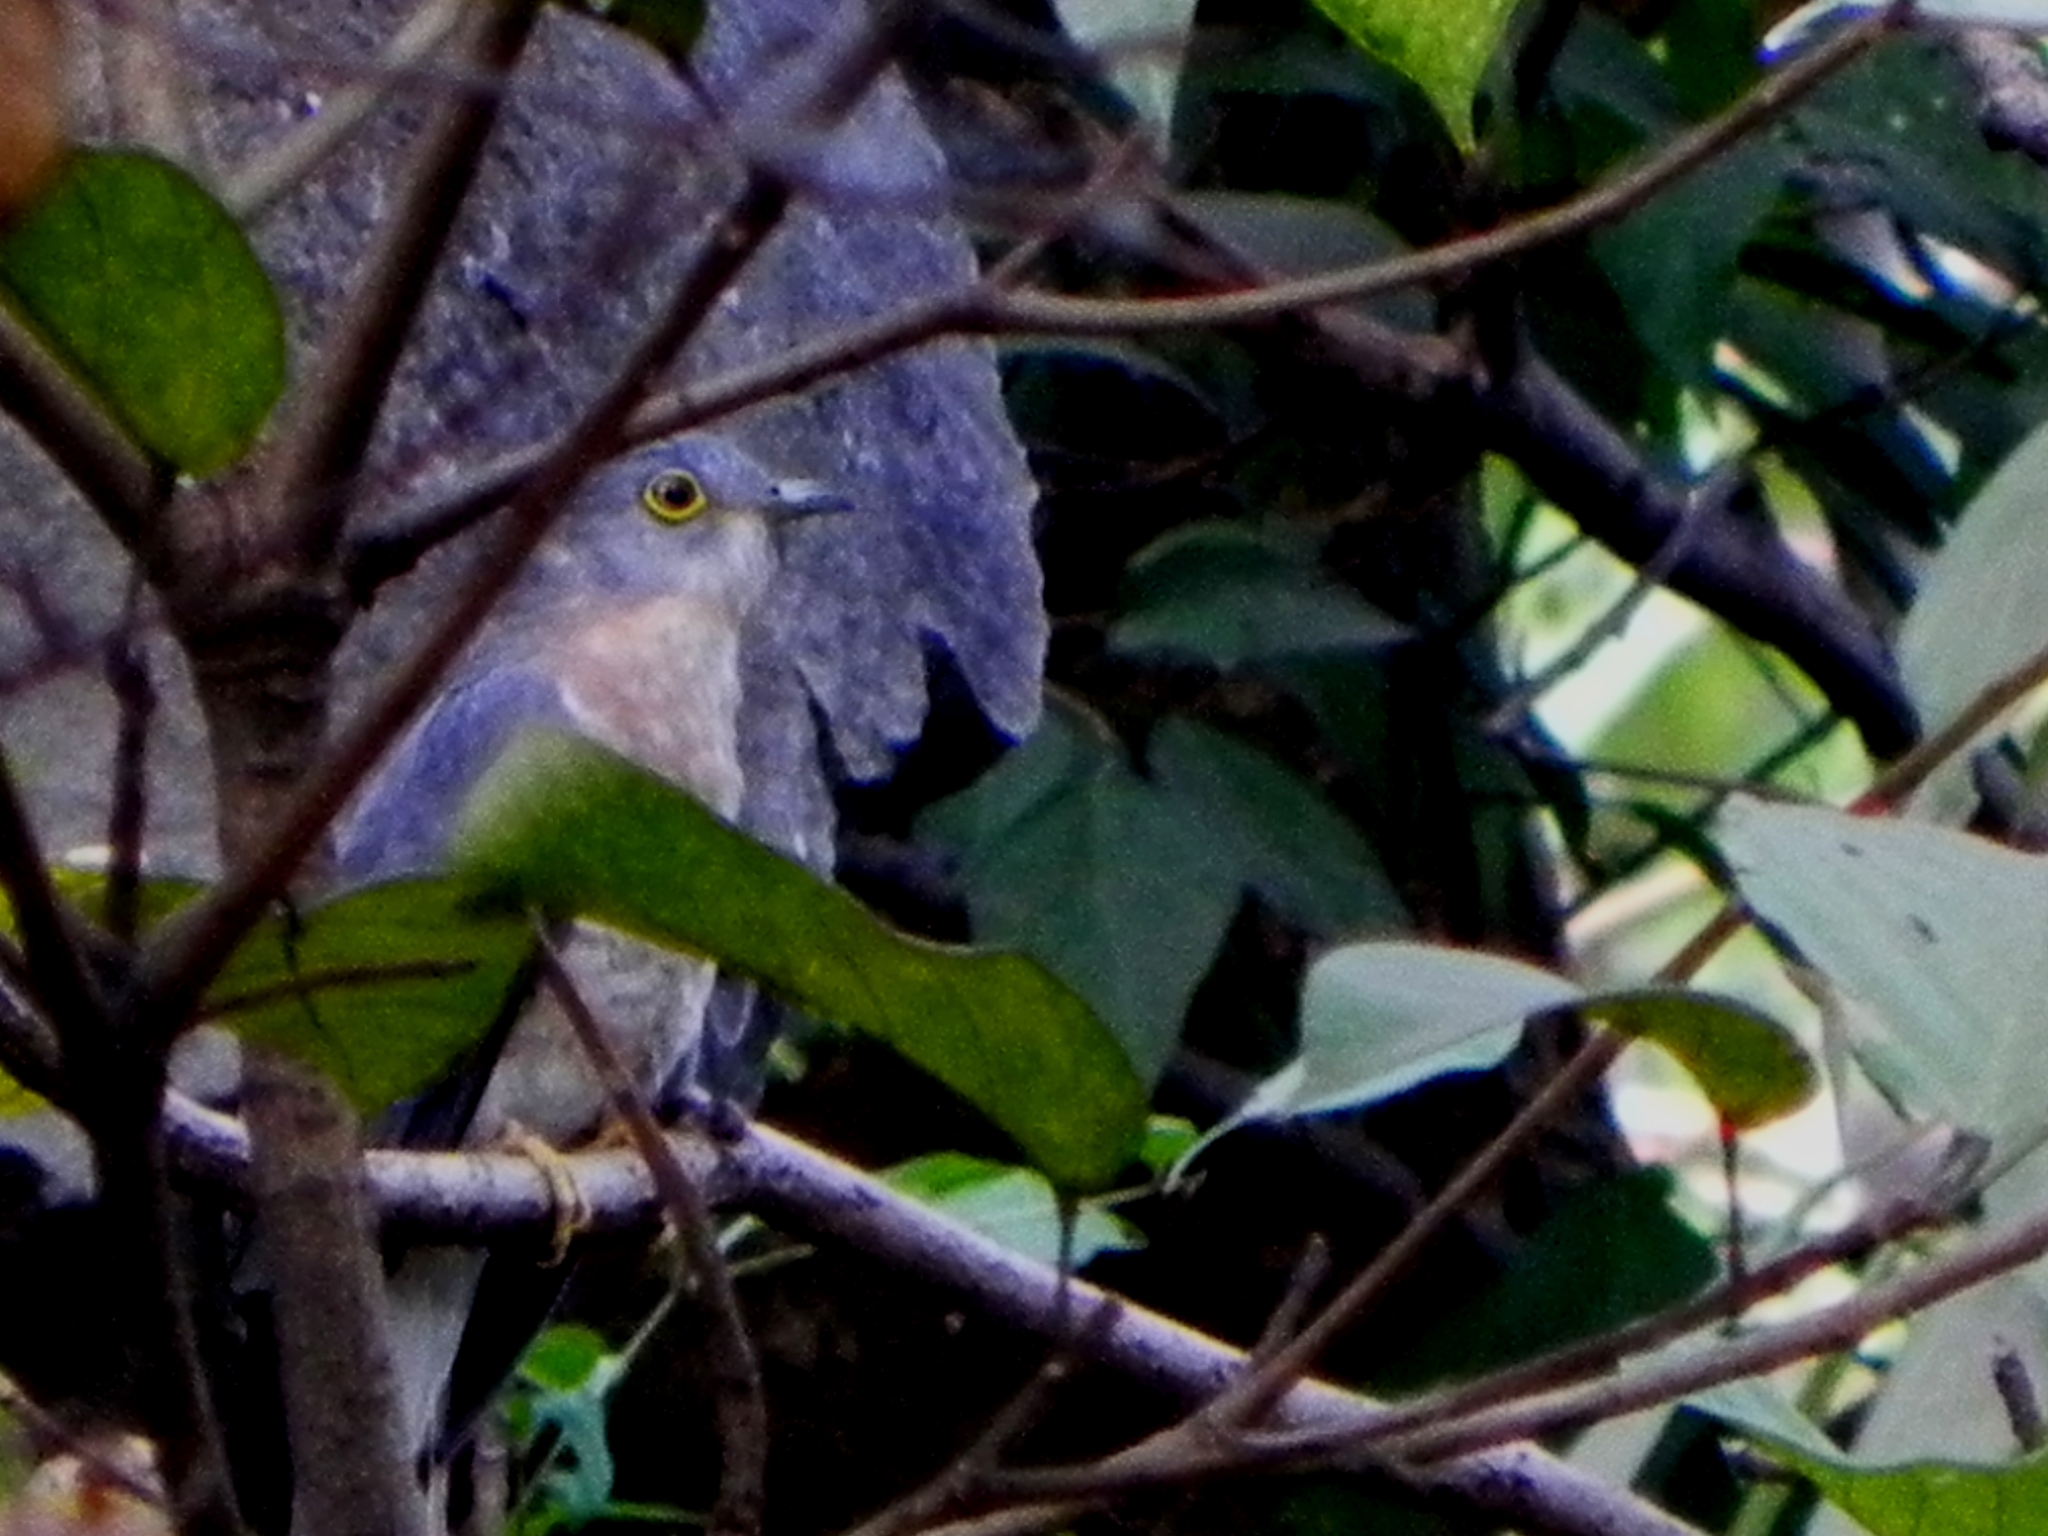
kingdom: Animalia
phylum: Chordata
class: Aves
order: Cuculiformes
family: Cuculidae
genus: Cuculus
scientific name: Cuculus varius
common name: Common hawk cuckoo
